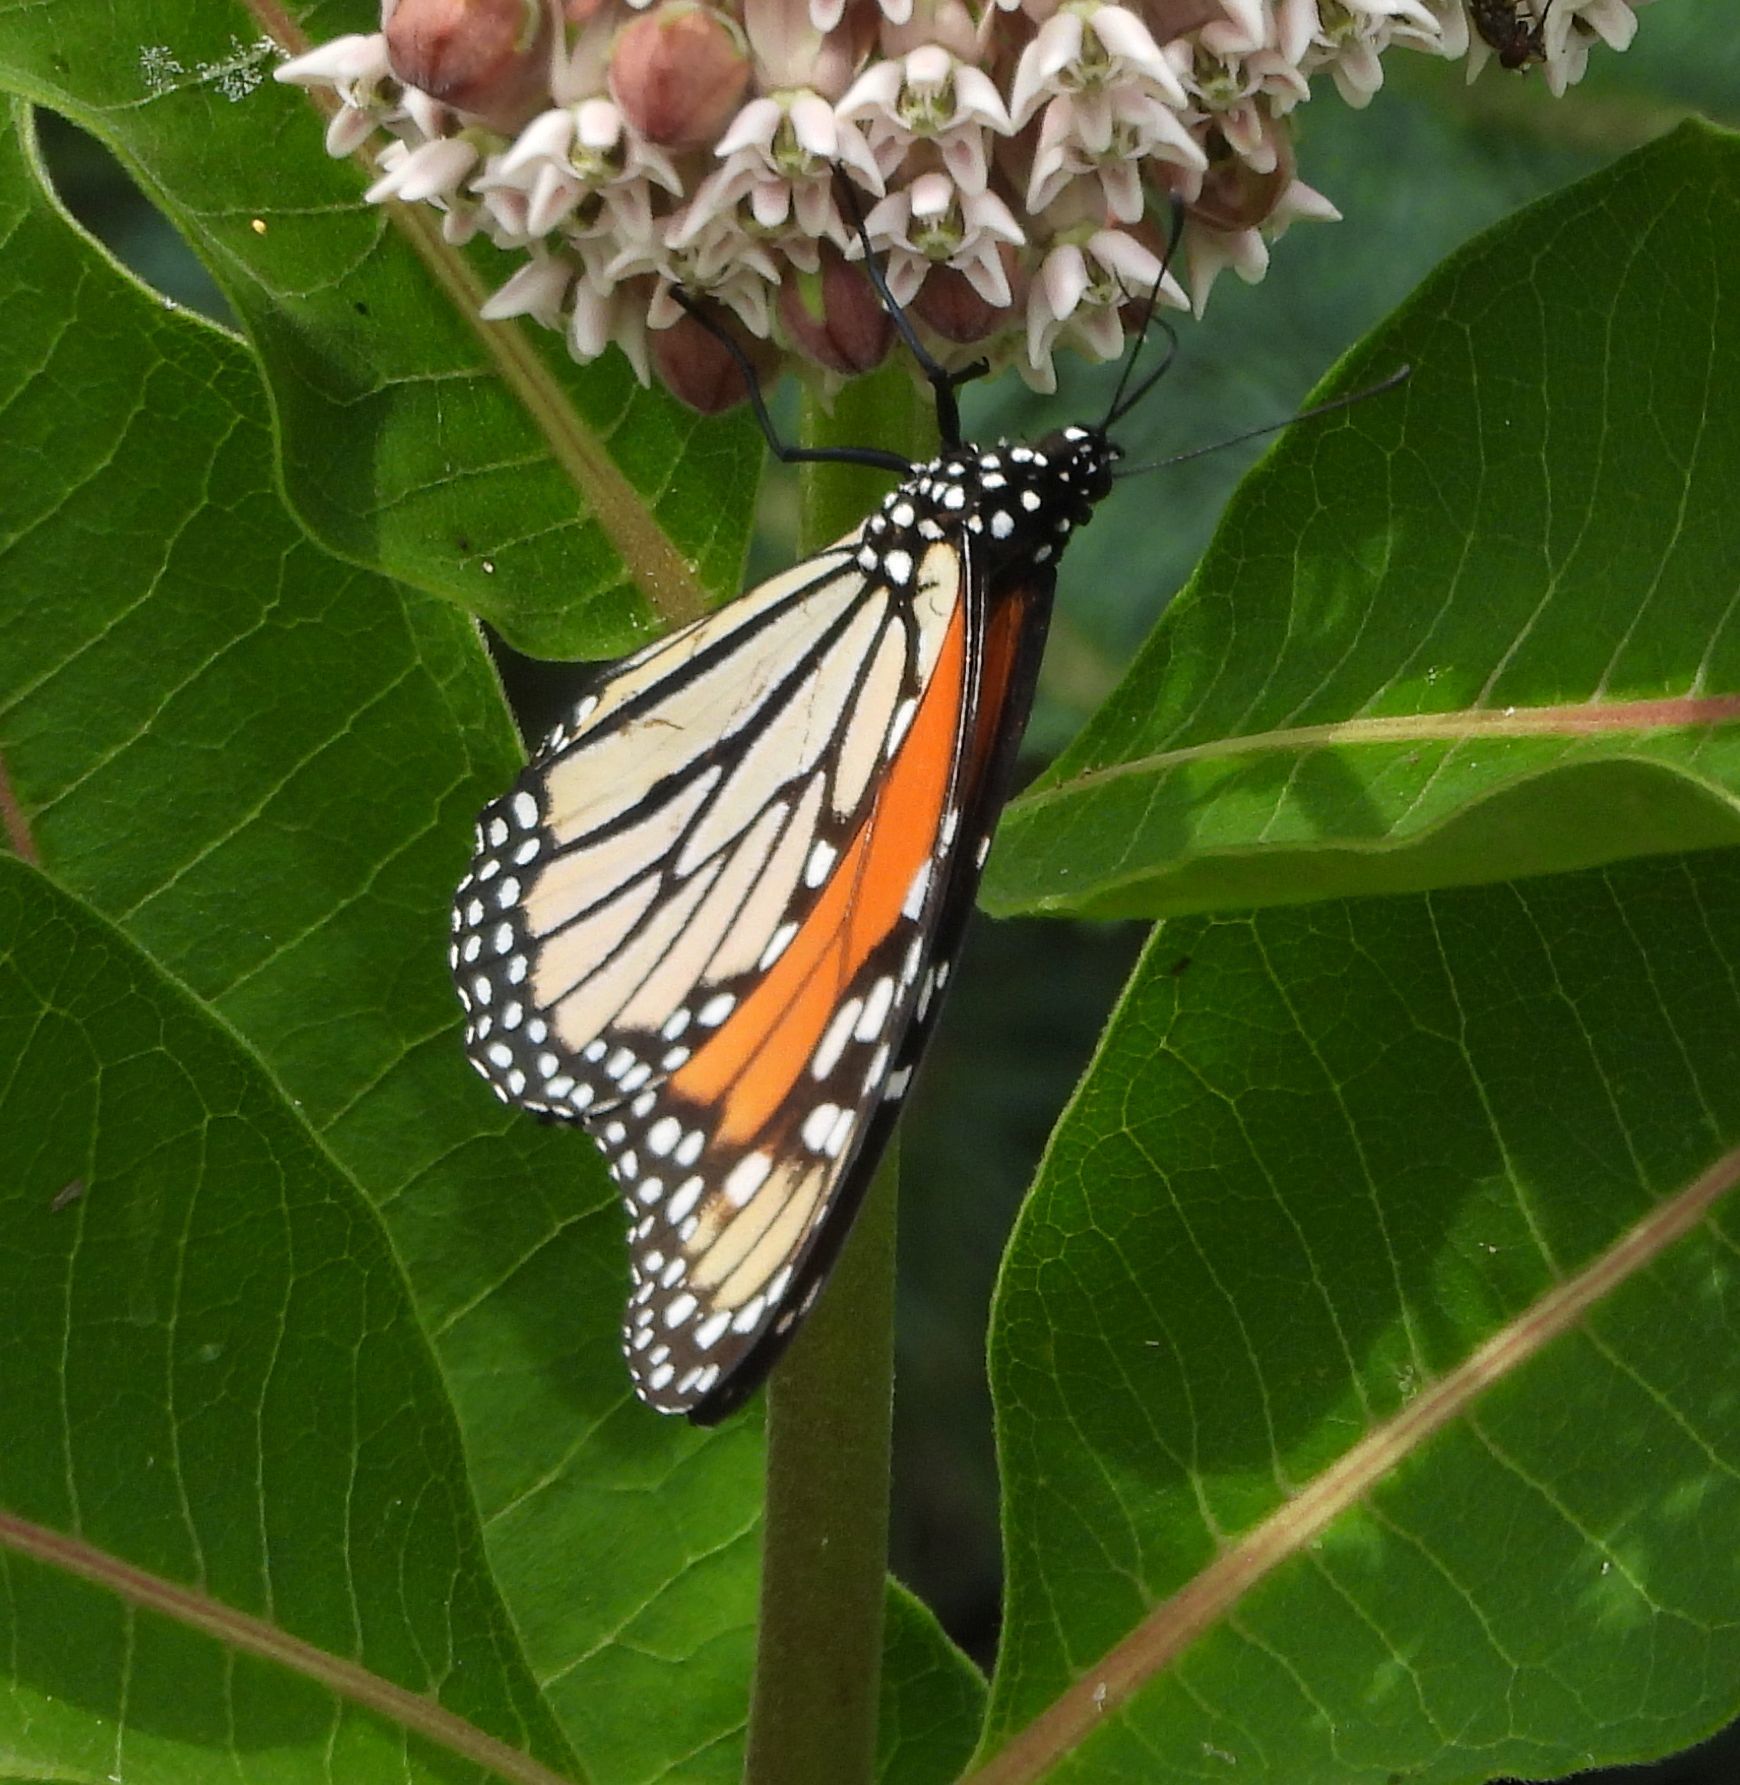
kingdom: Animalia
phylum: Arthropoda
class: Insecta
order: Lepidoptera
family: Nymphalidae
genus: Danaus
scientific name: Danaus plexippus
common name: Monarch
